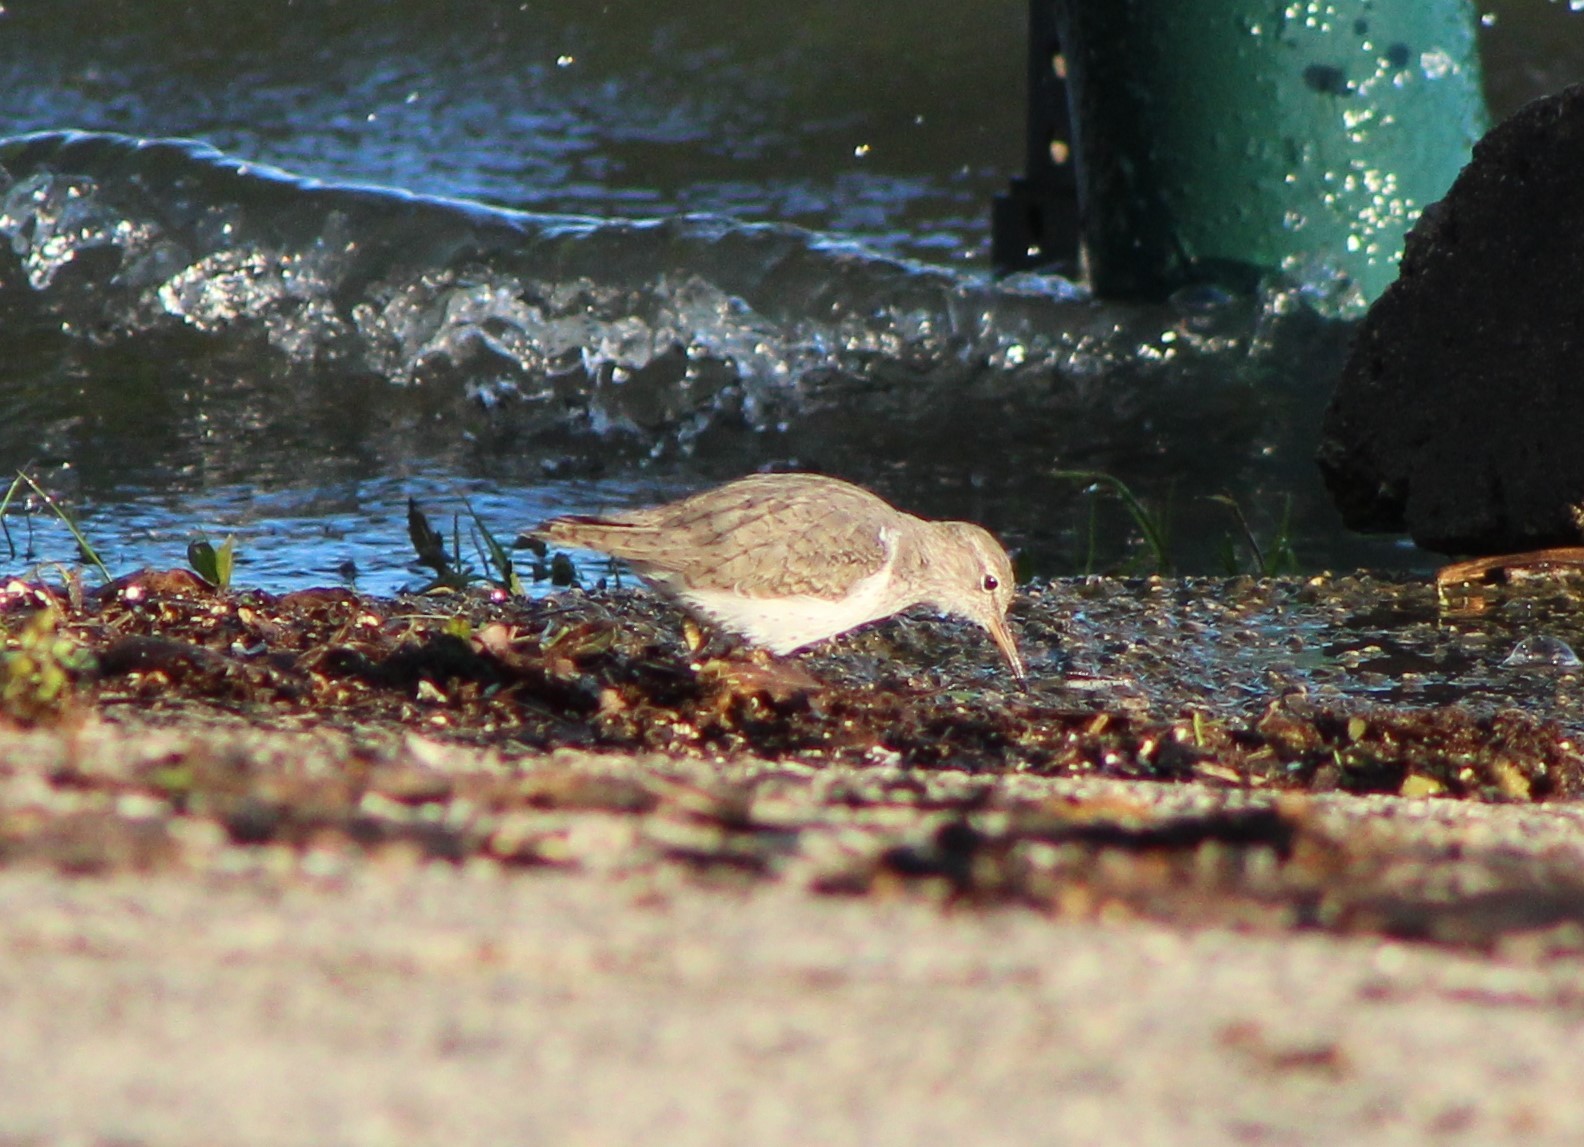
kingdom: Animalia
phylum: Chordata
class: Aves
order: Charadriiformes
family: Scolopacidae
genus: Actitis
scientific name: Actitis macularius
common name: Spotted sandpiper
